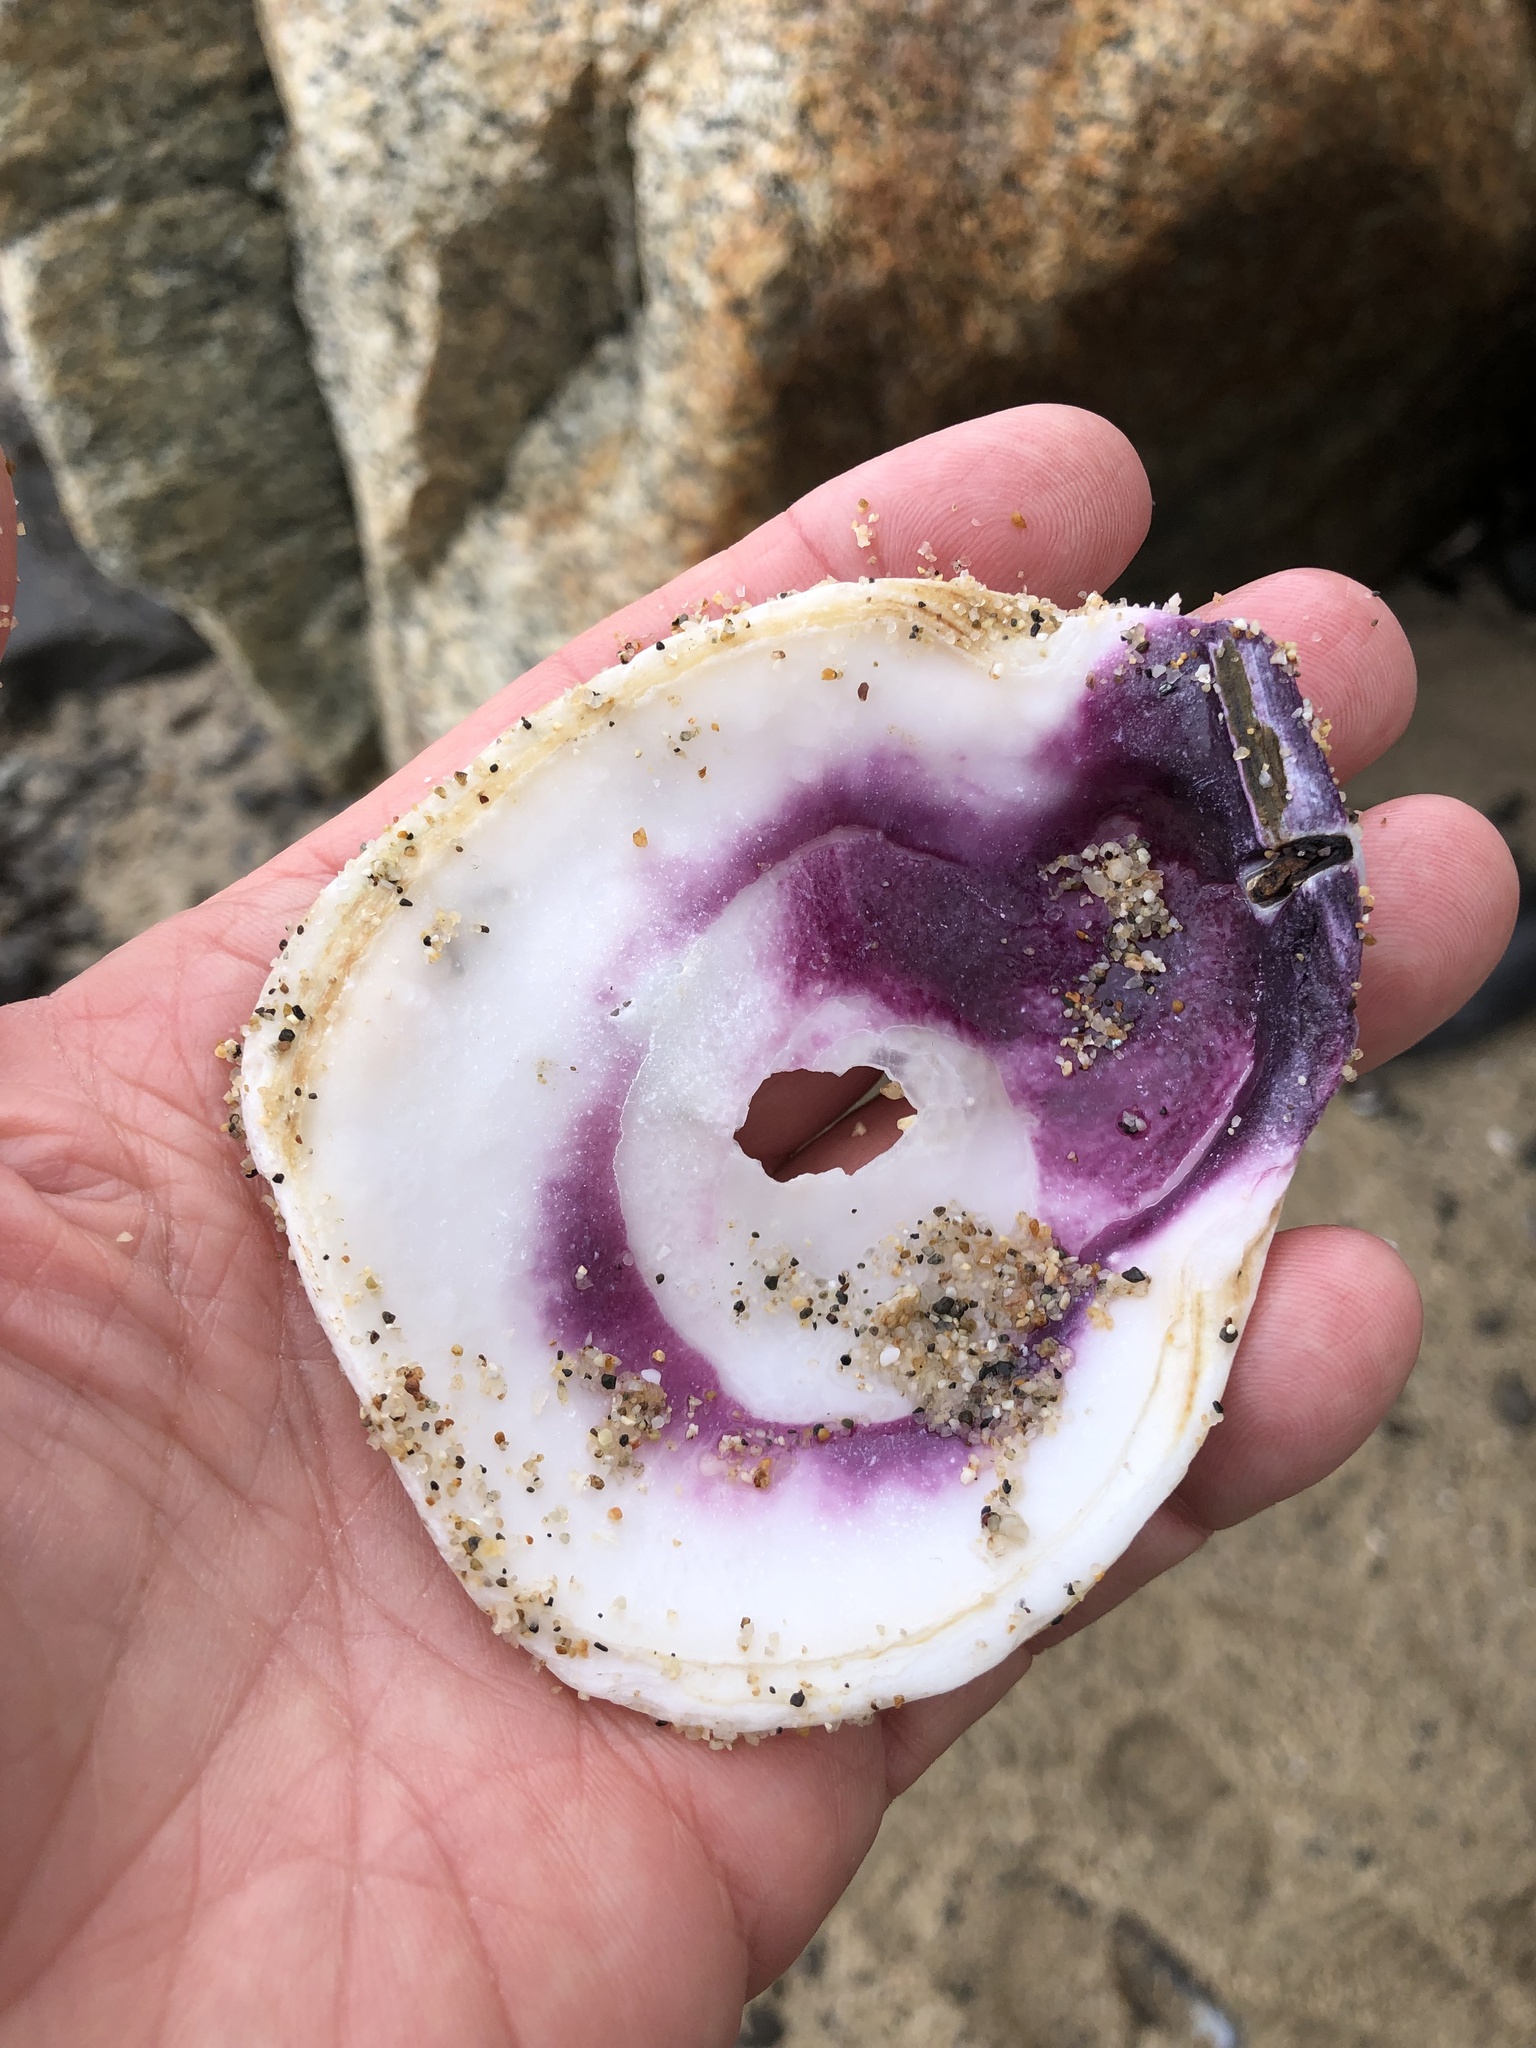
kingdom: Animalia
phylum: Mollusca
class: Bivalvia
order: Pectinida
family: Pectinidae
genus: Crassadoma
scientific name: Crassadoma gigantea
